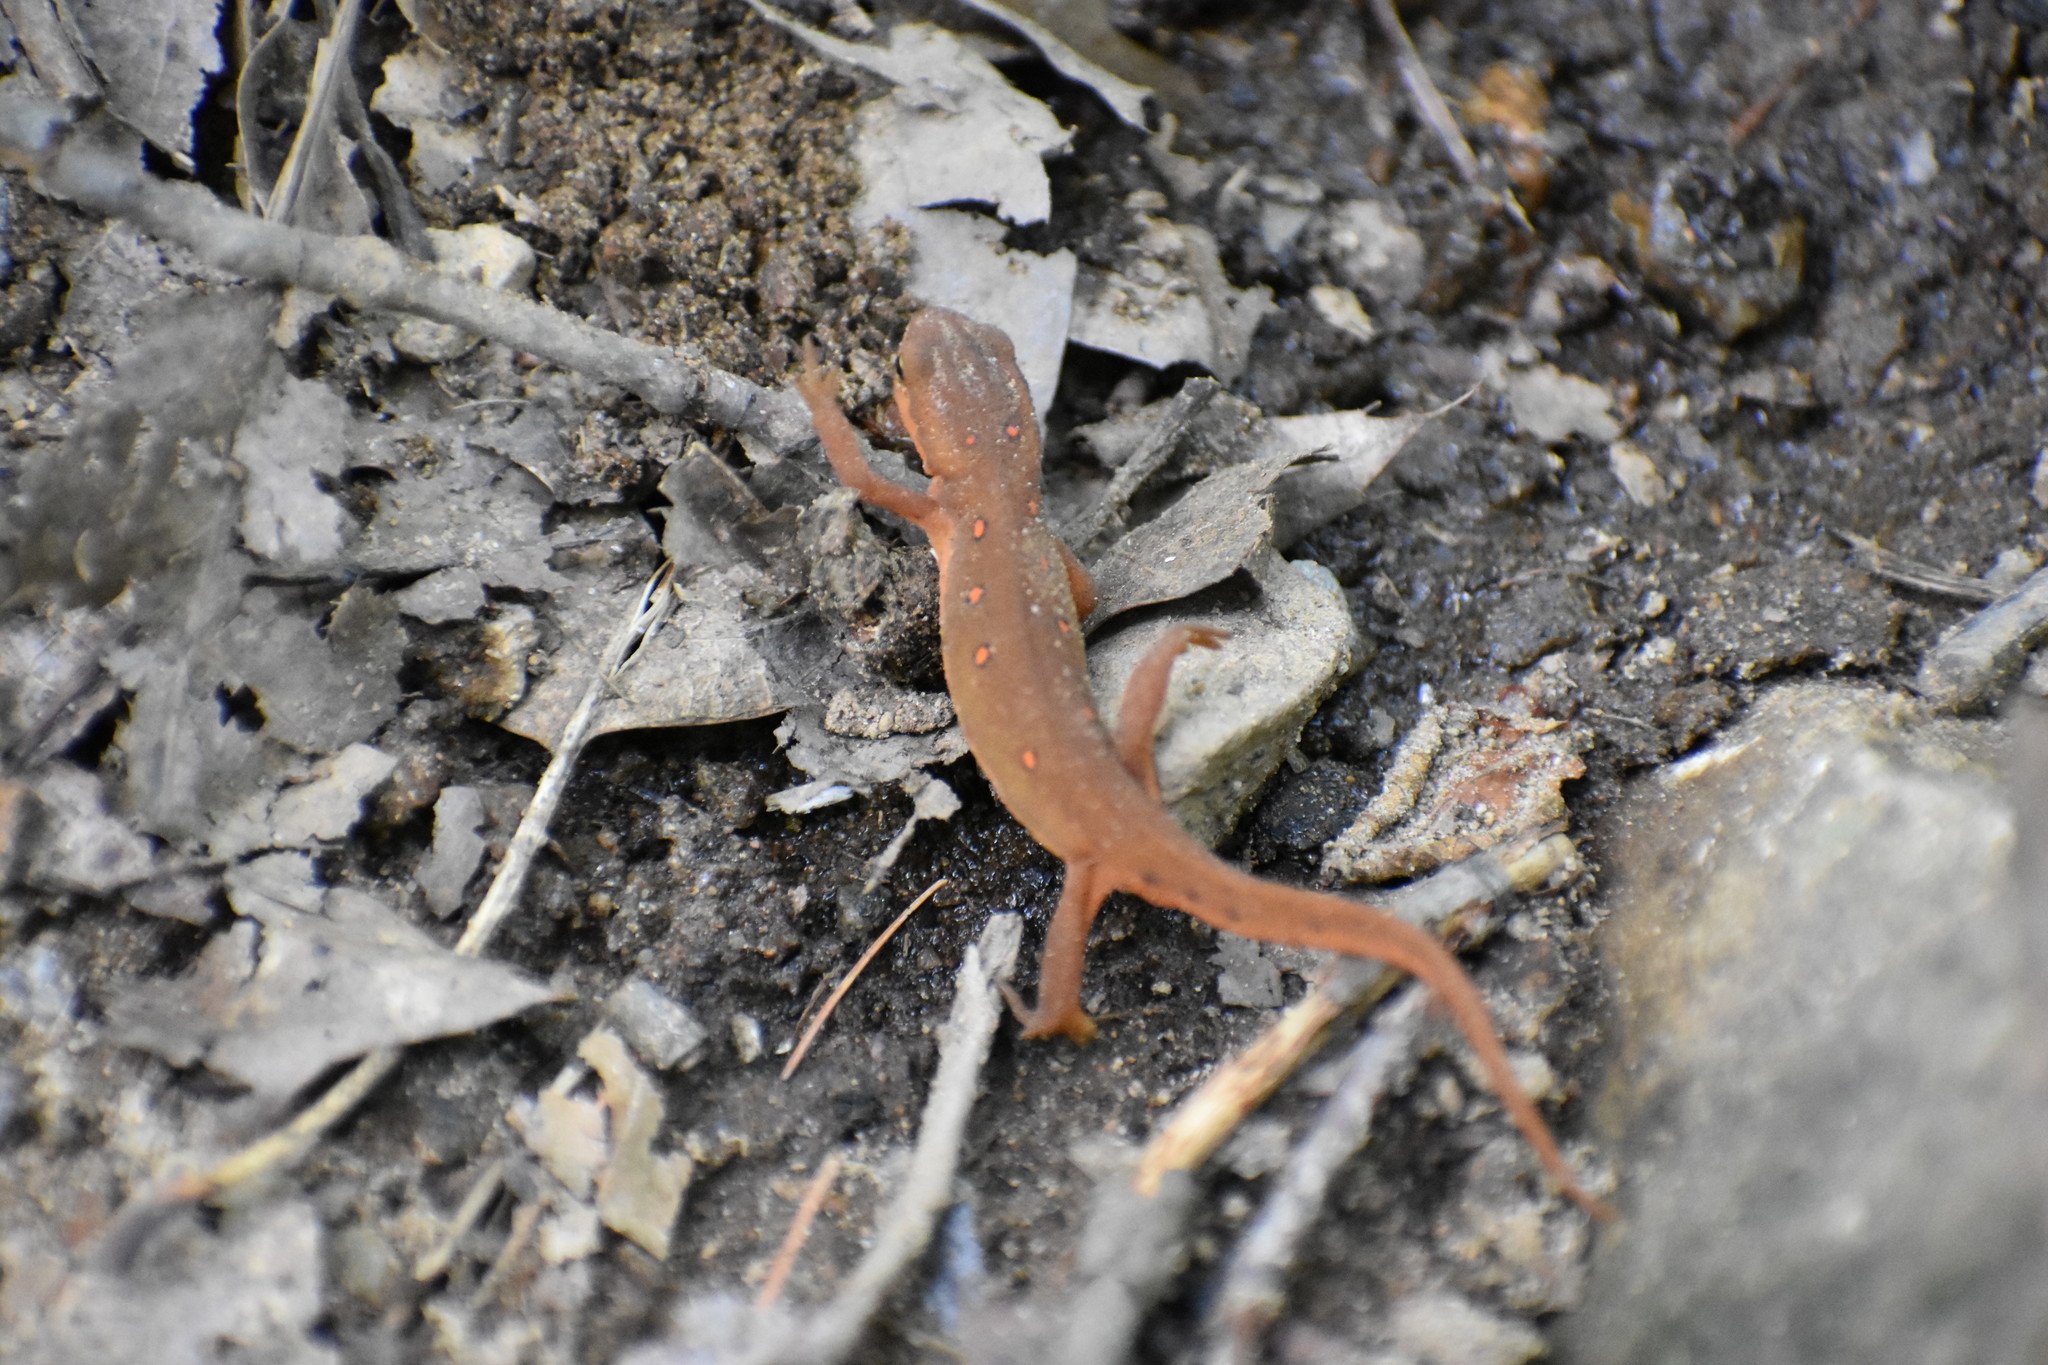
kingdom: Animalia
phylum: Chordata
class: Amphibia
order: Caudata
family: Salamandridae
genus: Notophthalmus
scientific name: Notophthalmus viridescens
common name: Eastern newt
